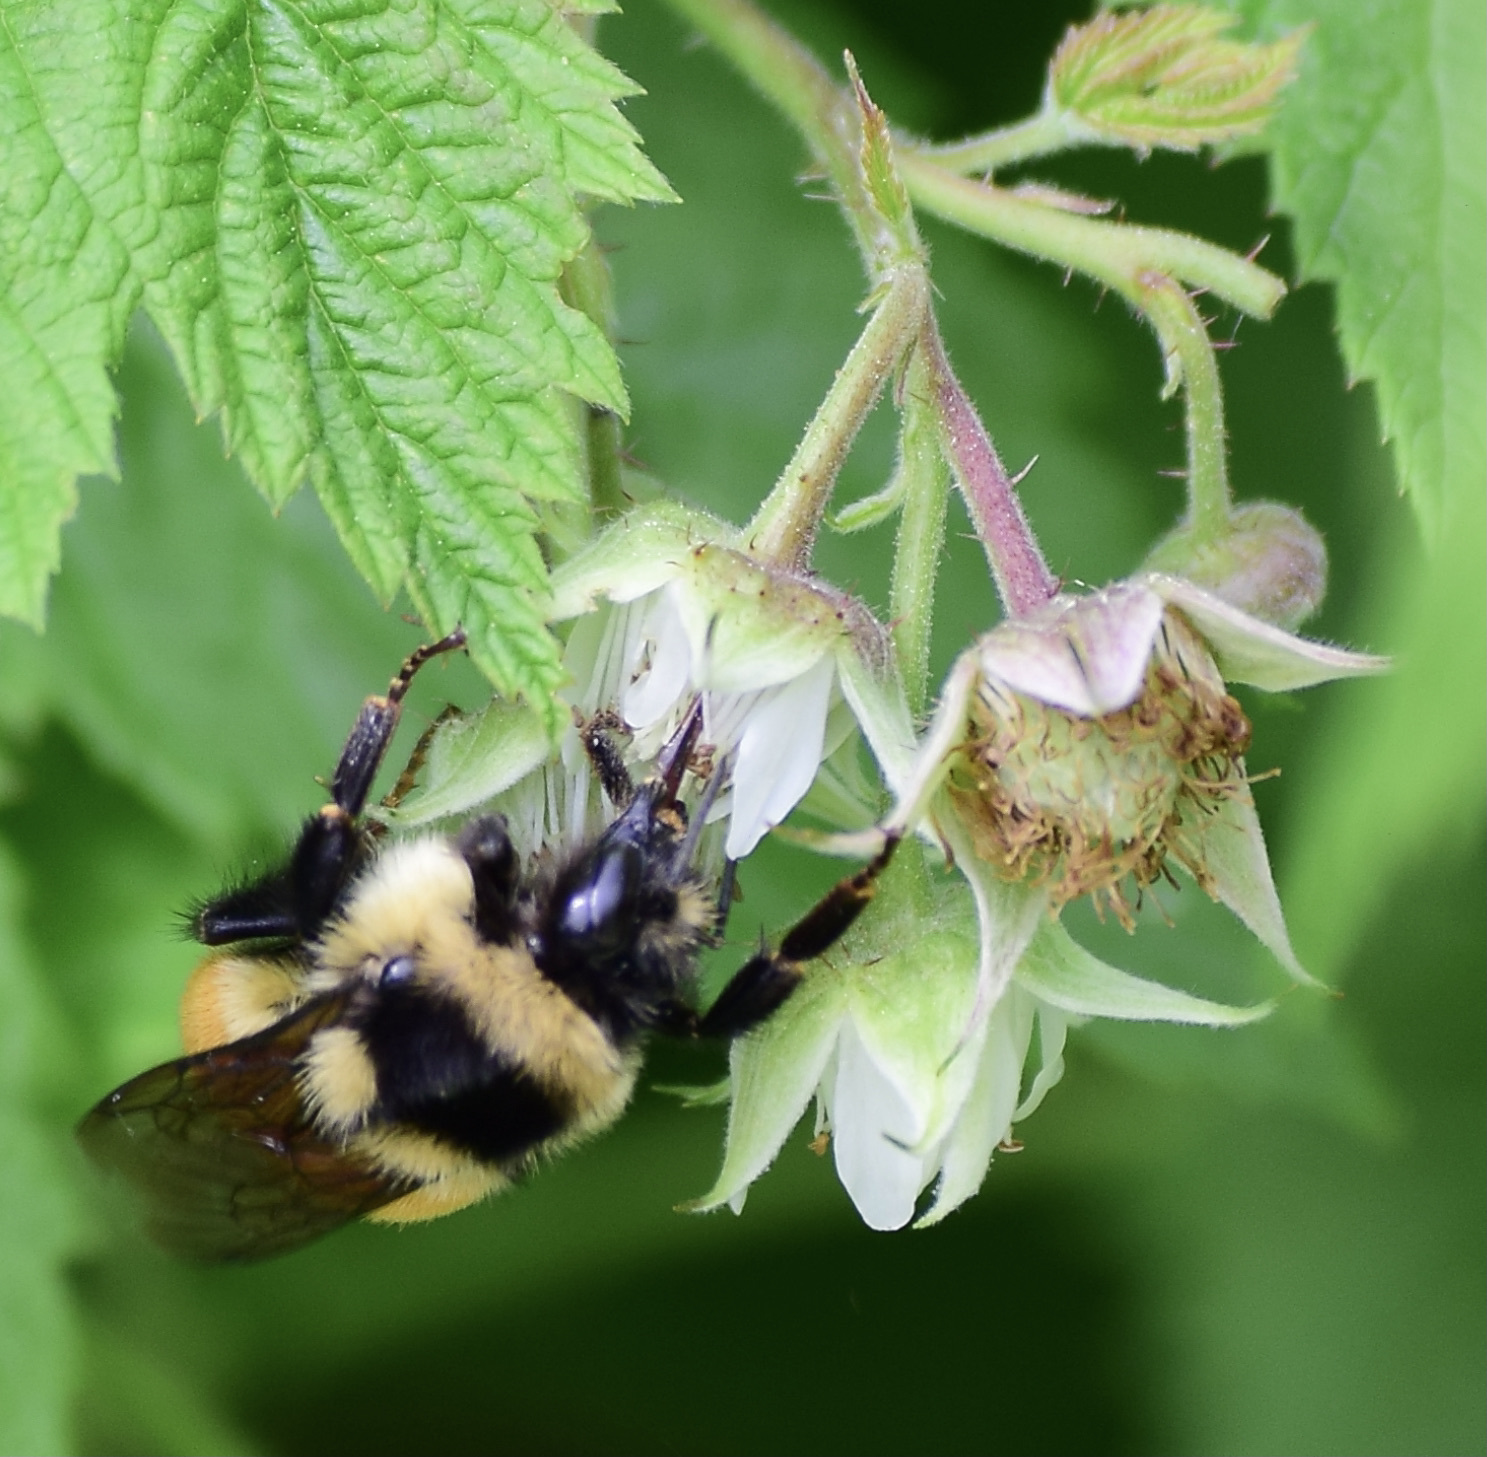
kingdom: Animalia
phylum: Arthropoda
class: Insecta
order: Hymenoptera
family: Apidae
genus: Bombus
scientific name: Bombus ternarius
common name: Tri-colored bumble bee
